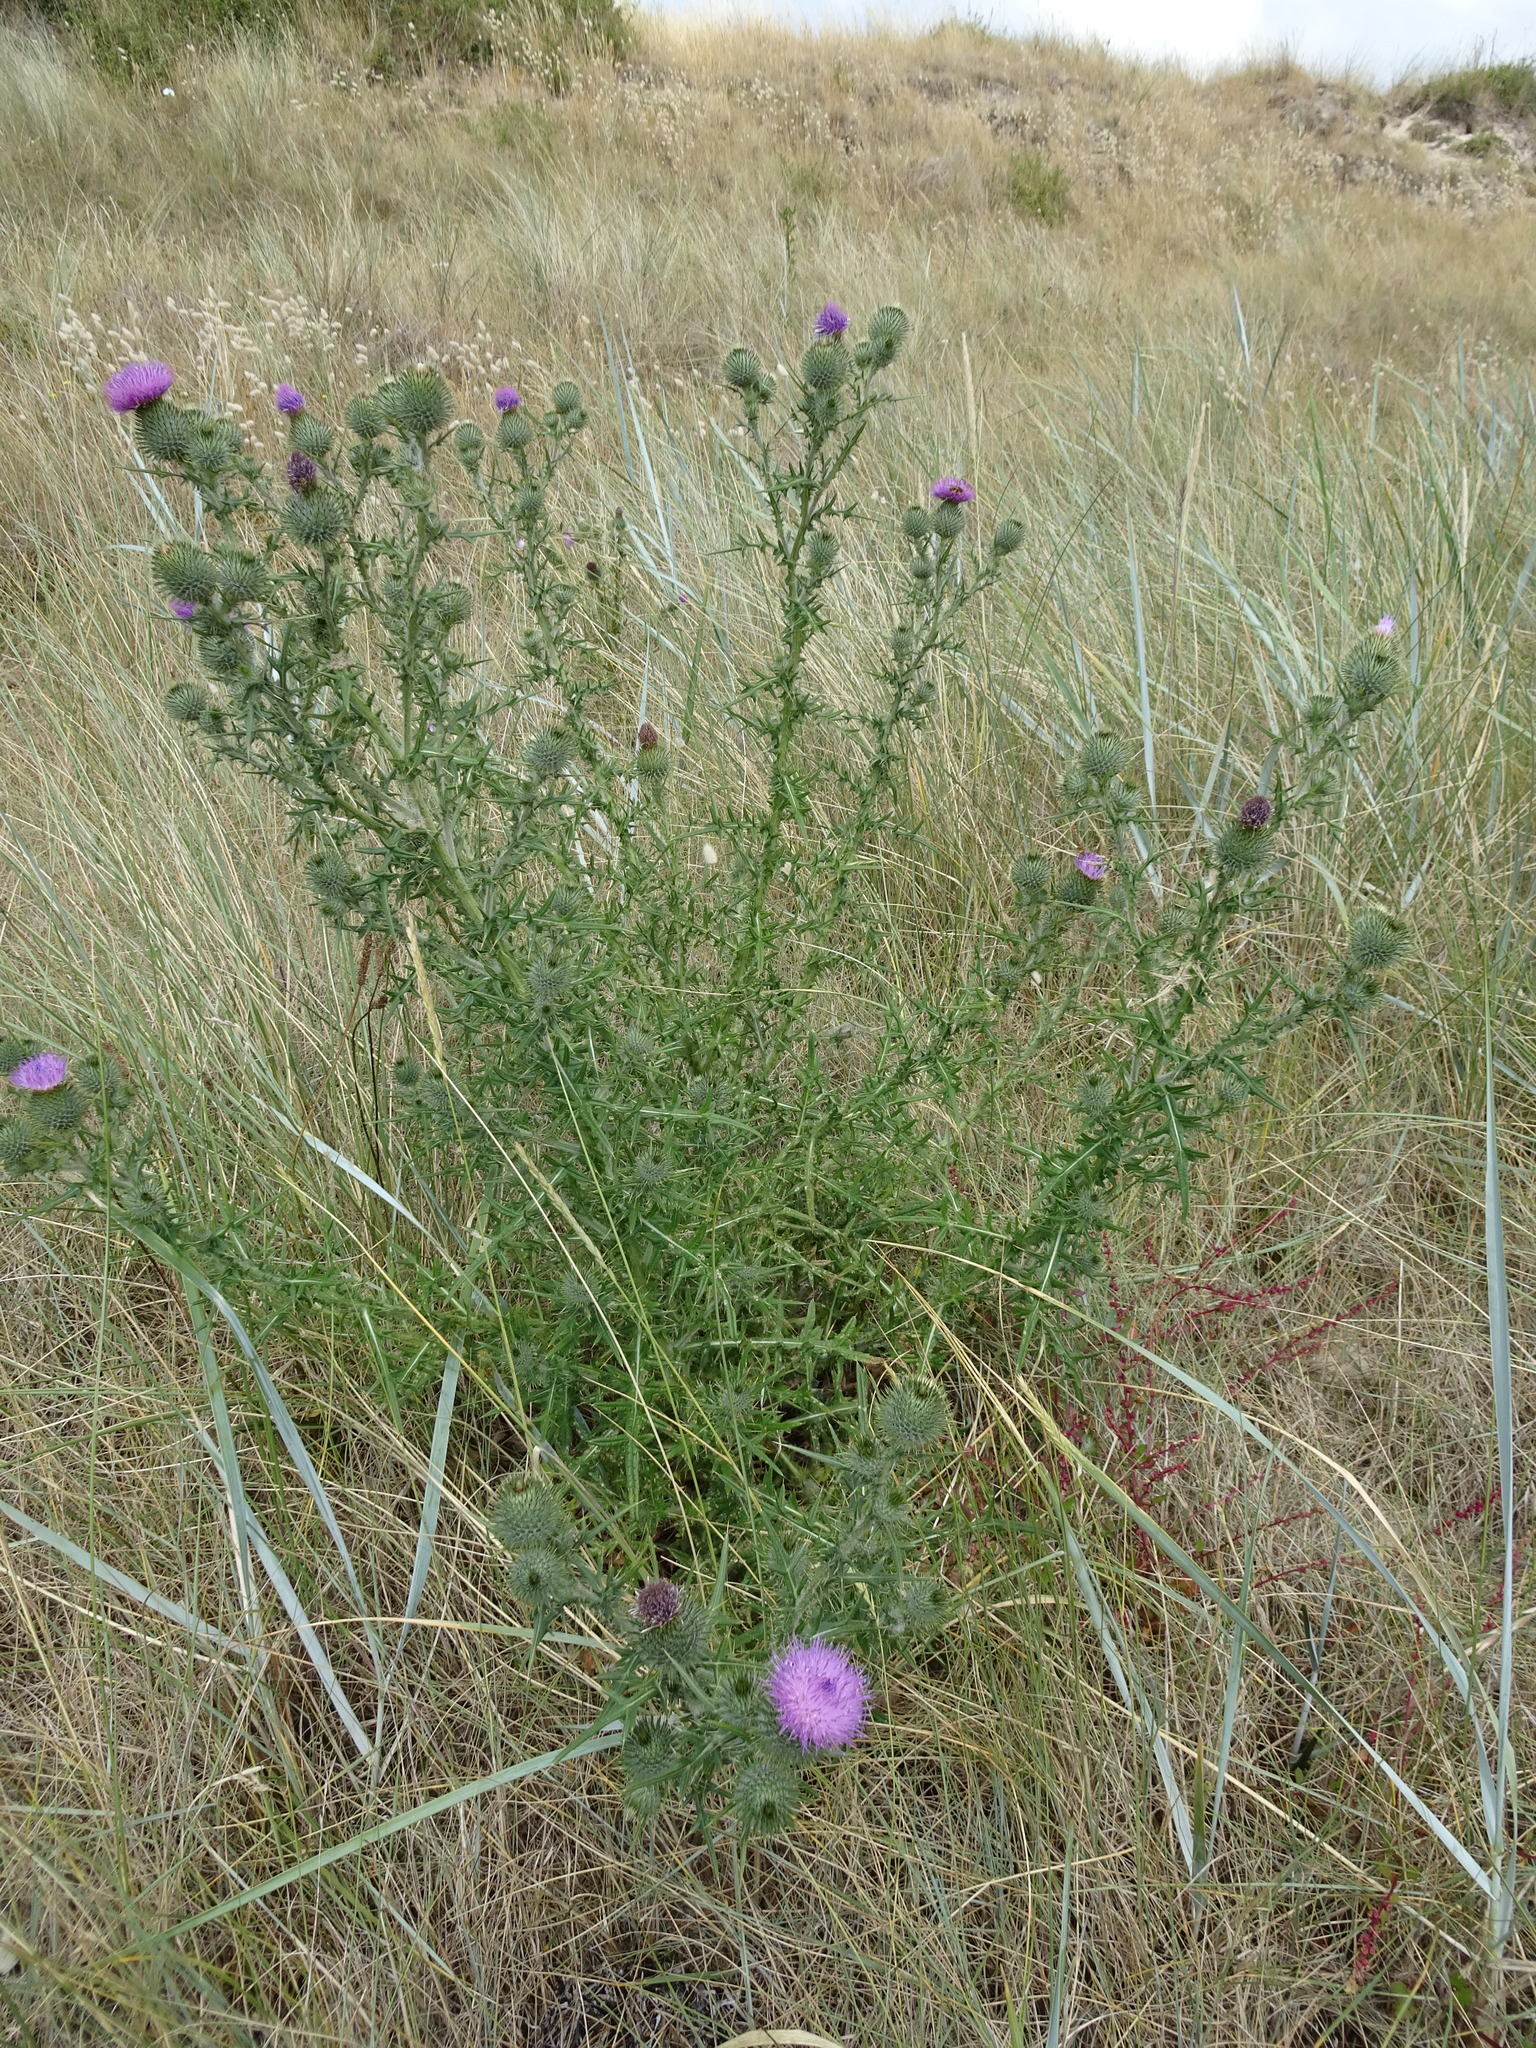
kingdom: Plantae
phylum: Tracheophyta
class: Magnoliopsida
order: Asterales
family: Asteraceae
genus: Cirsium
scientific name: Cirsium vulgare
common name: Bull thistle
